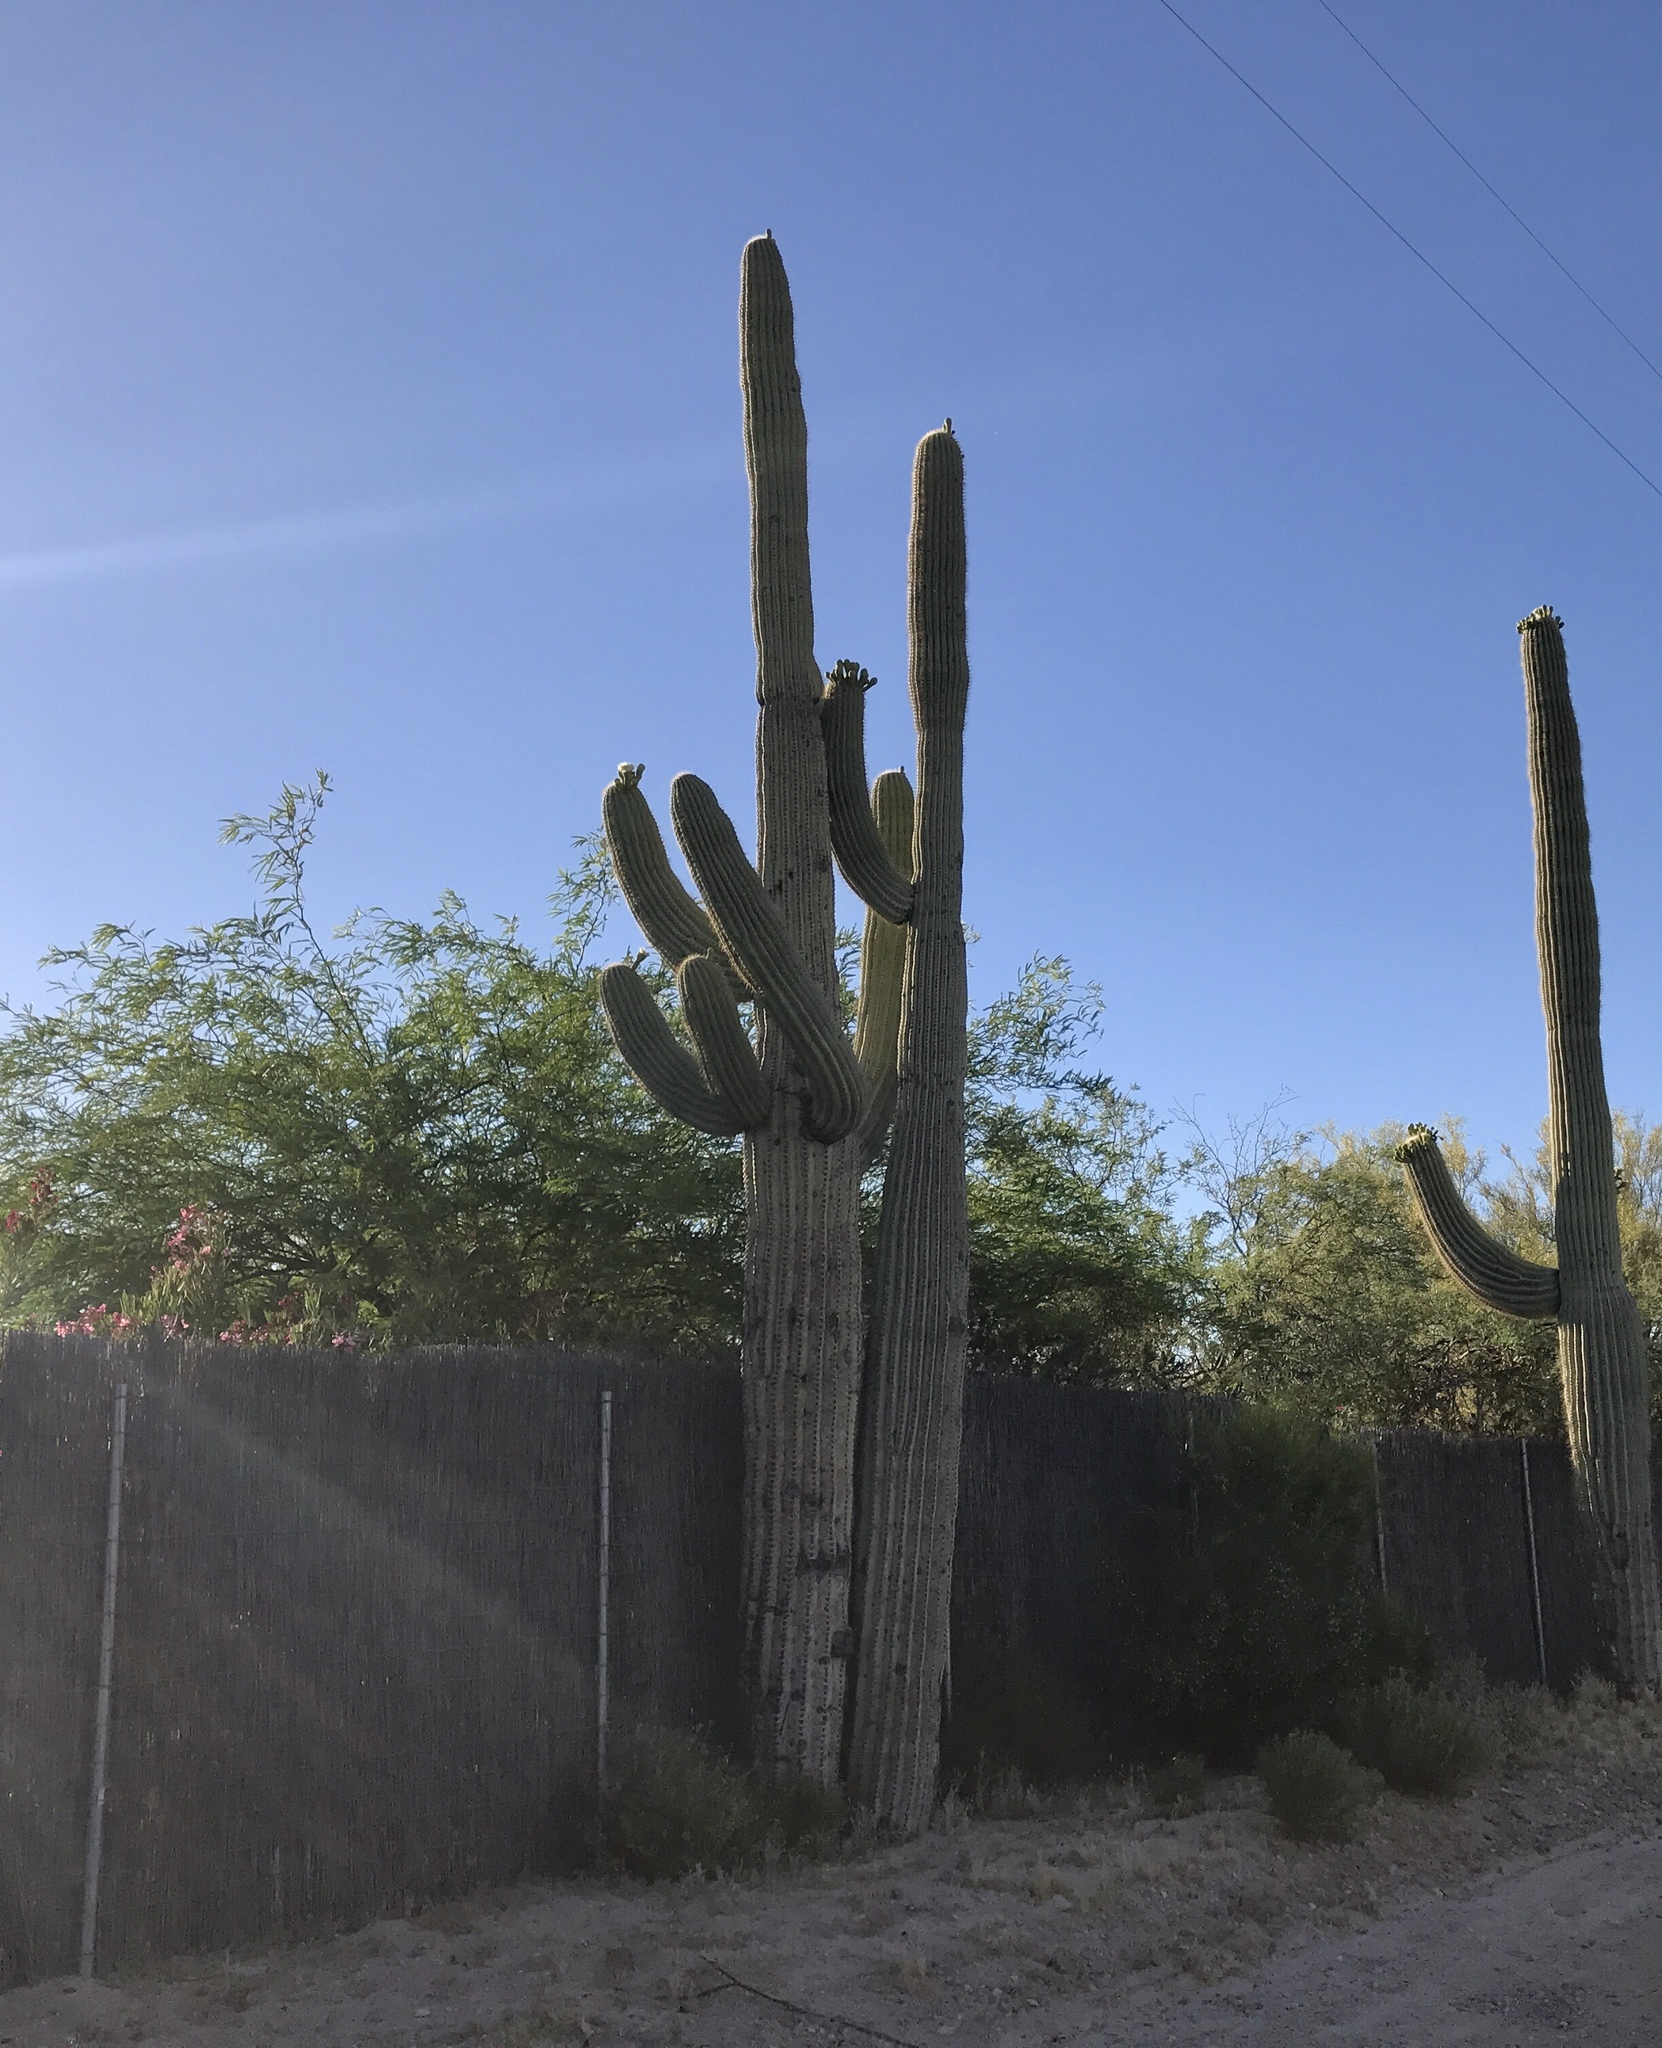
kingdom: Plantae
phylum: Tracheophyta
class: Magnoliopsida
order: Caryophyllales
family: Cactaceae
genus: Carnegiea
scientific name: Carnegiea gigantea
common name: Saguaro
